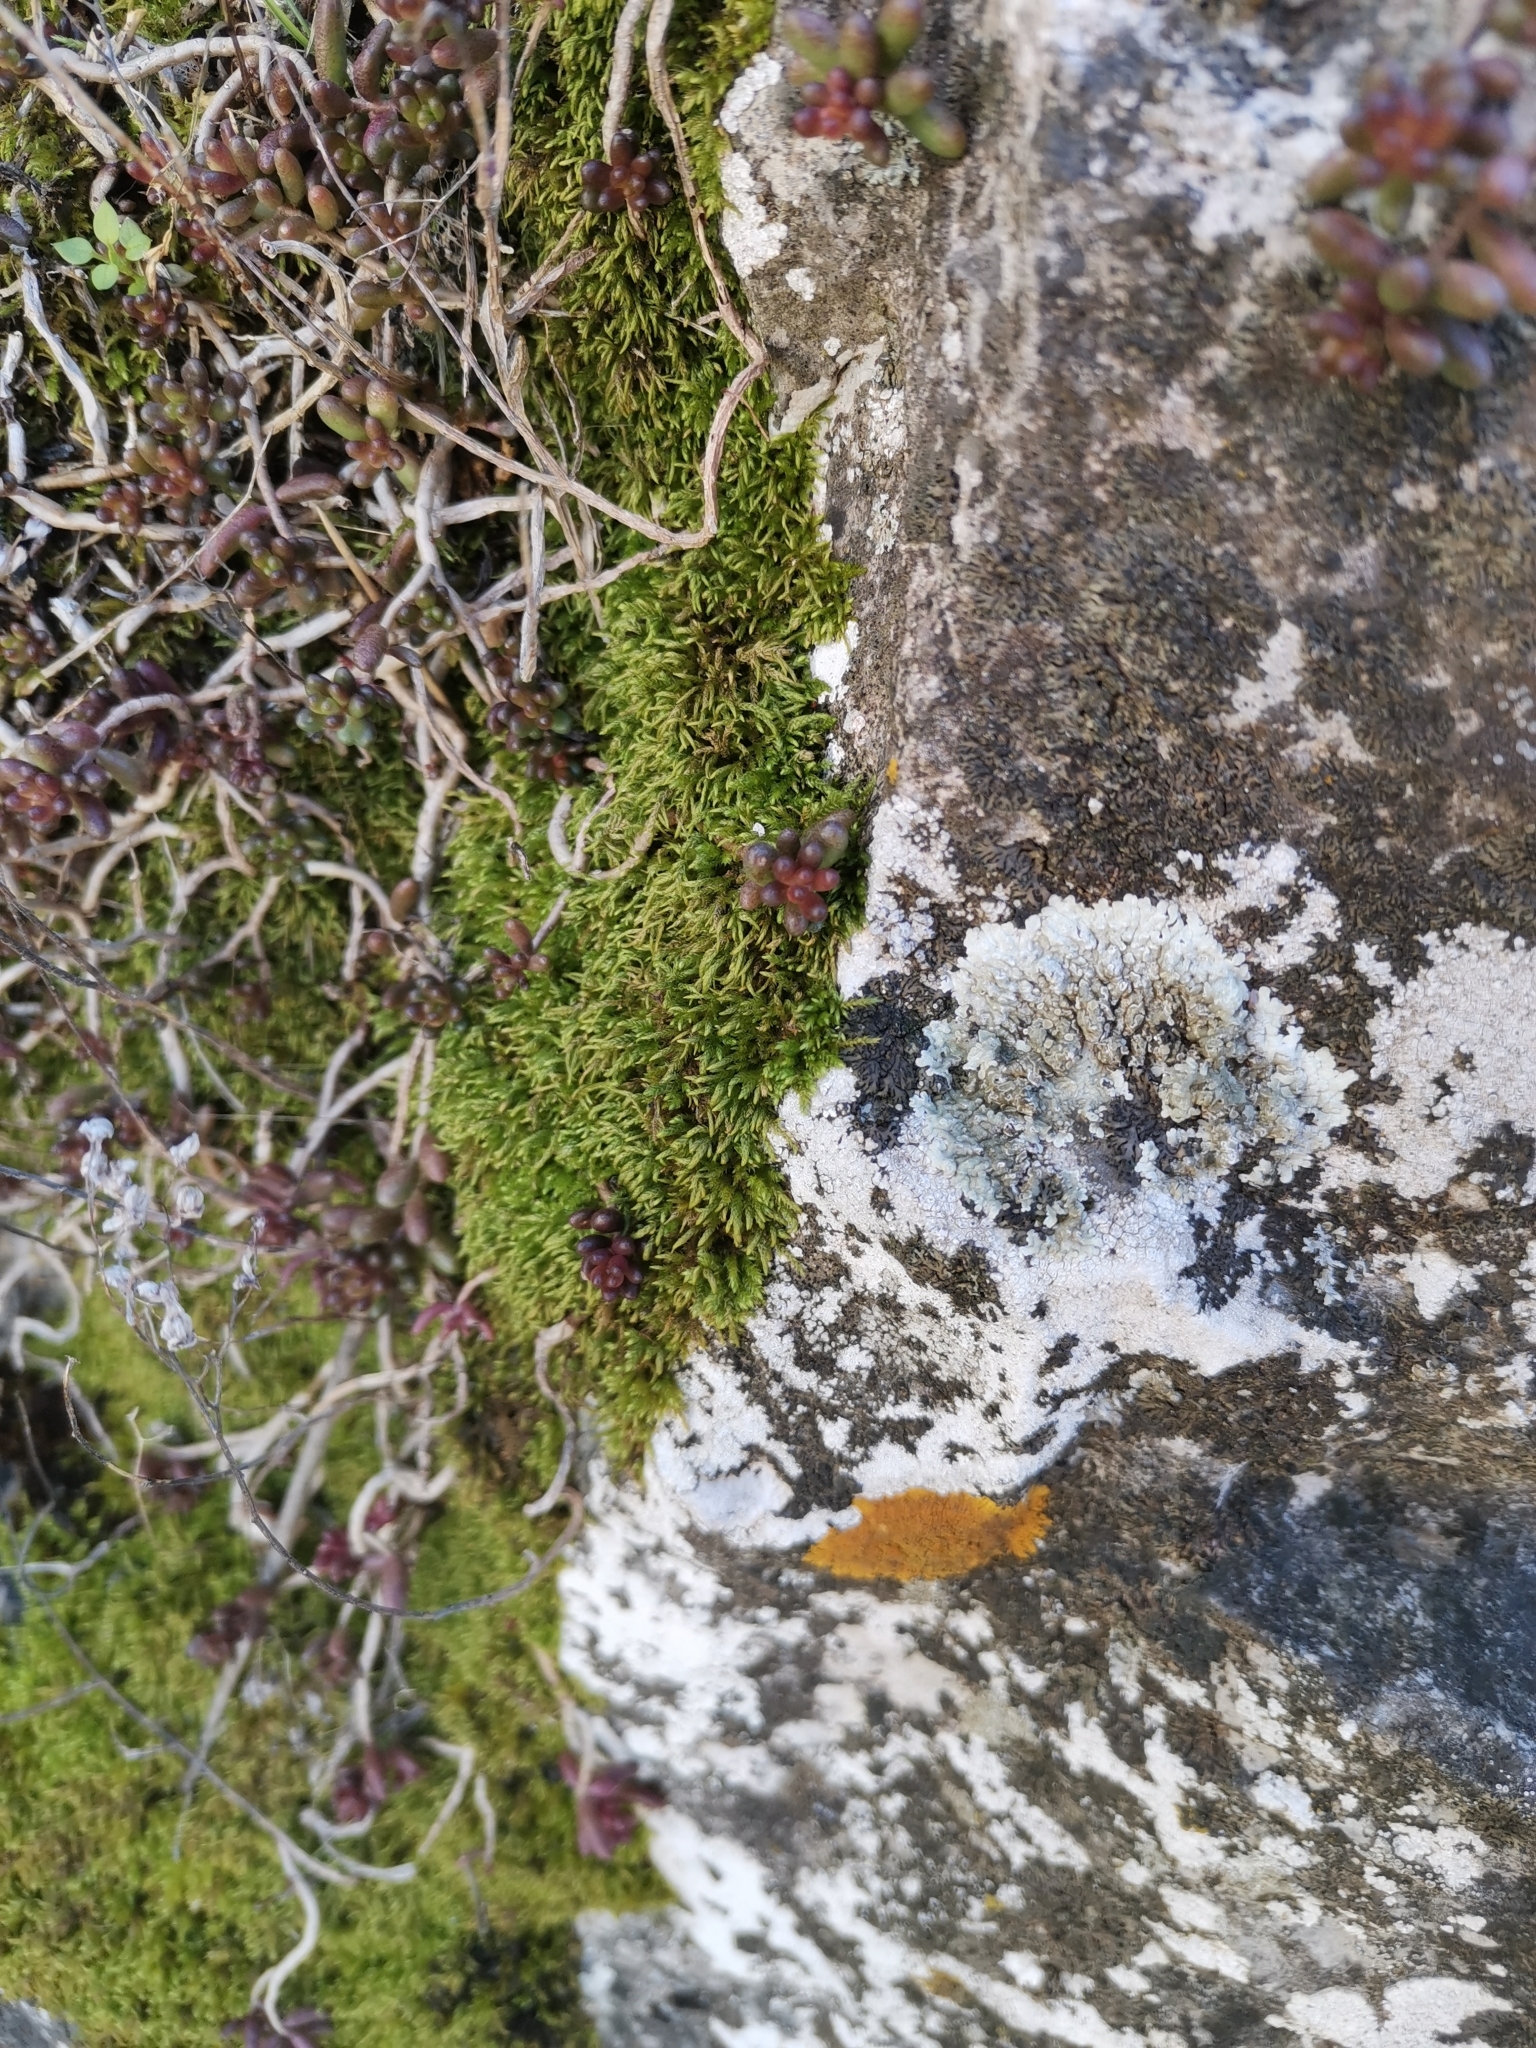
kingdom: Plantae
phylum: Bryophyta
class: Bryopsida
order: Hypnales
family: Brachytheciaceae
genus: Scorpiurium
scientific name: Scorpiurium circinatum
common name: Curving feather-moss
